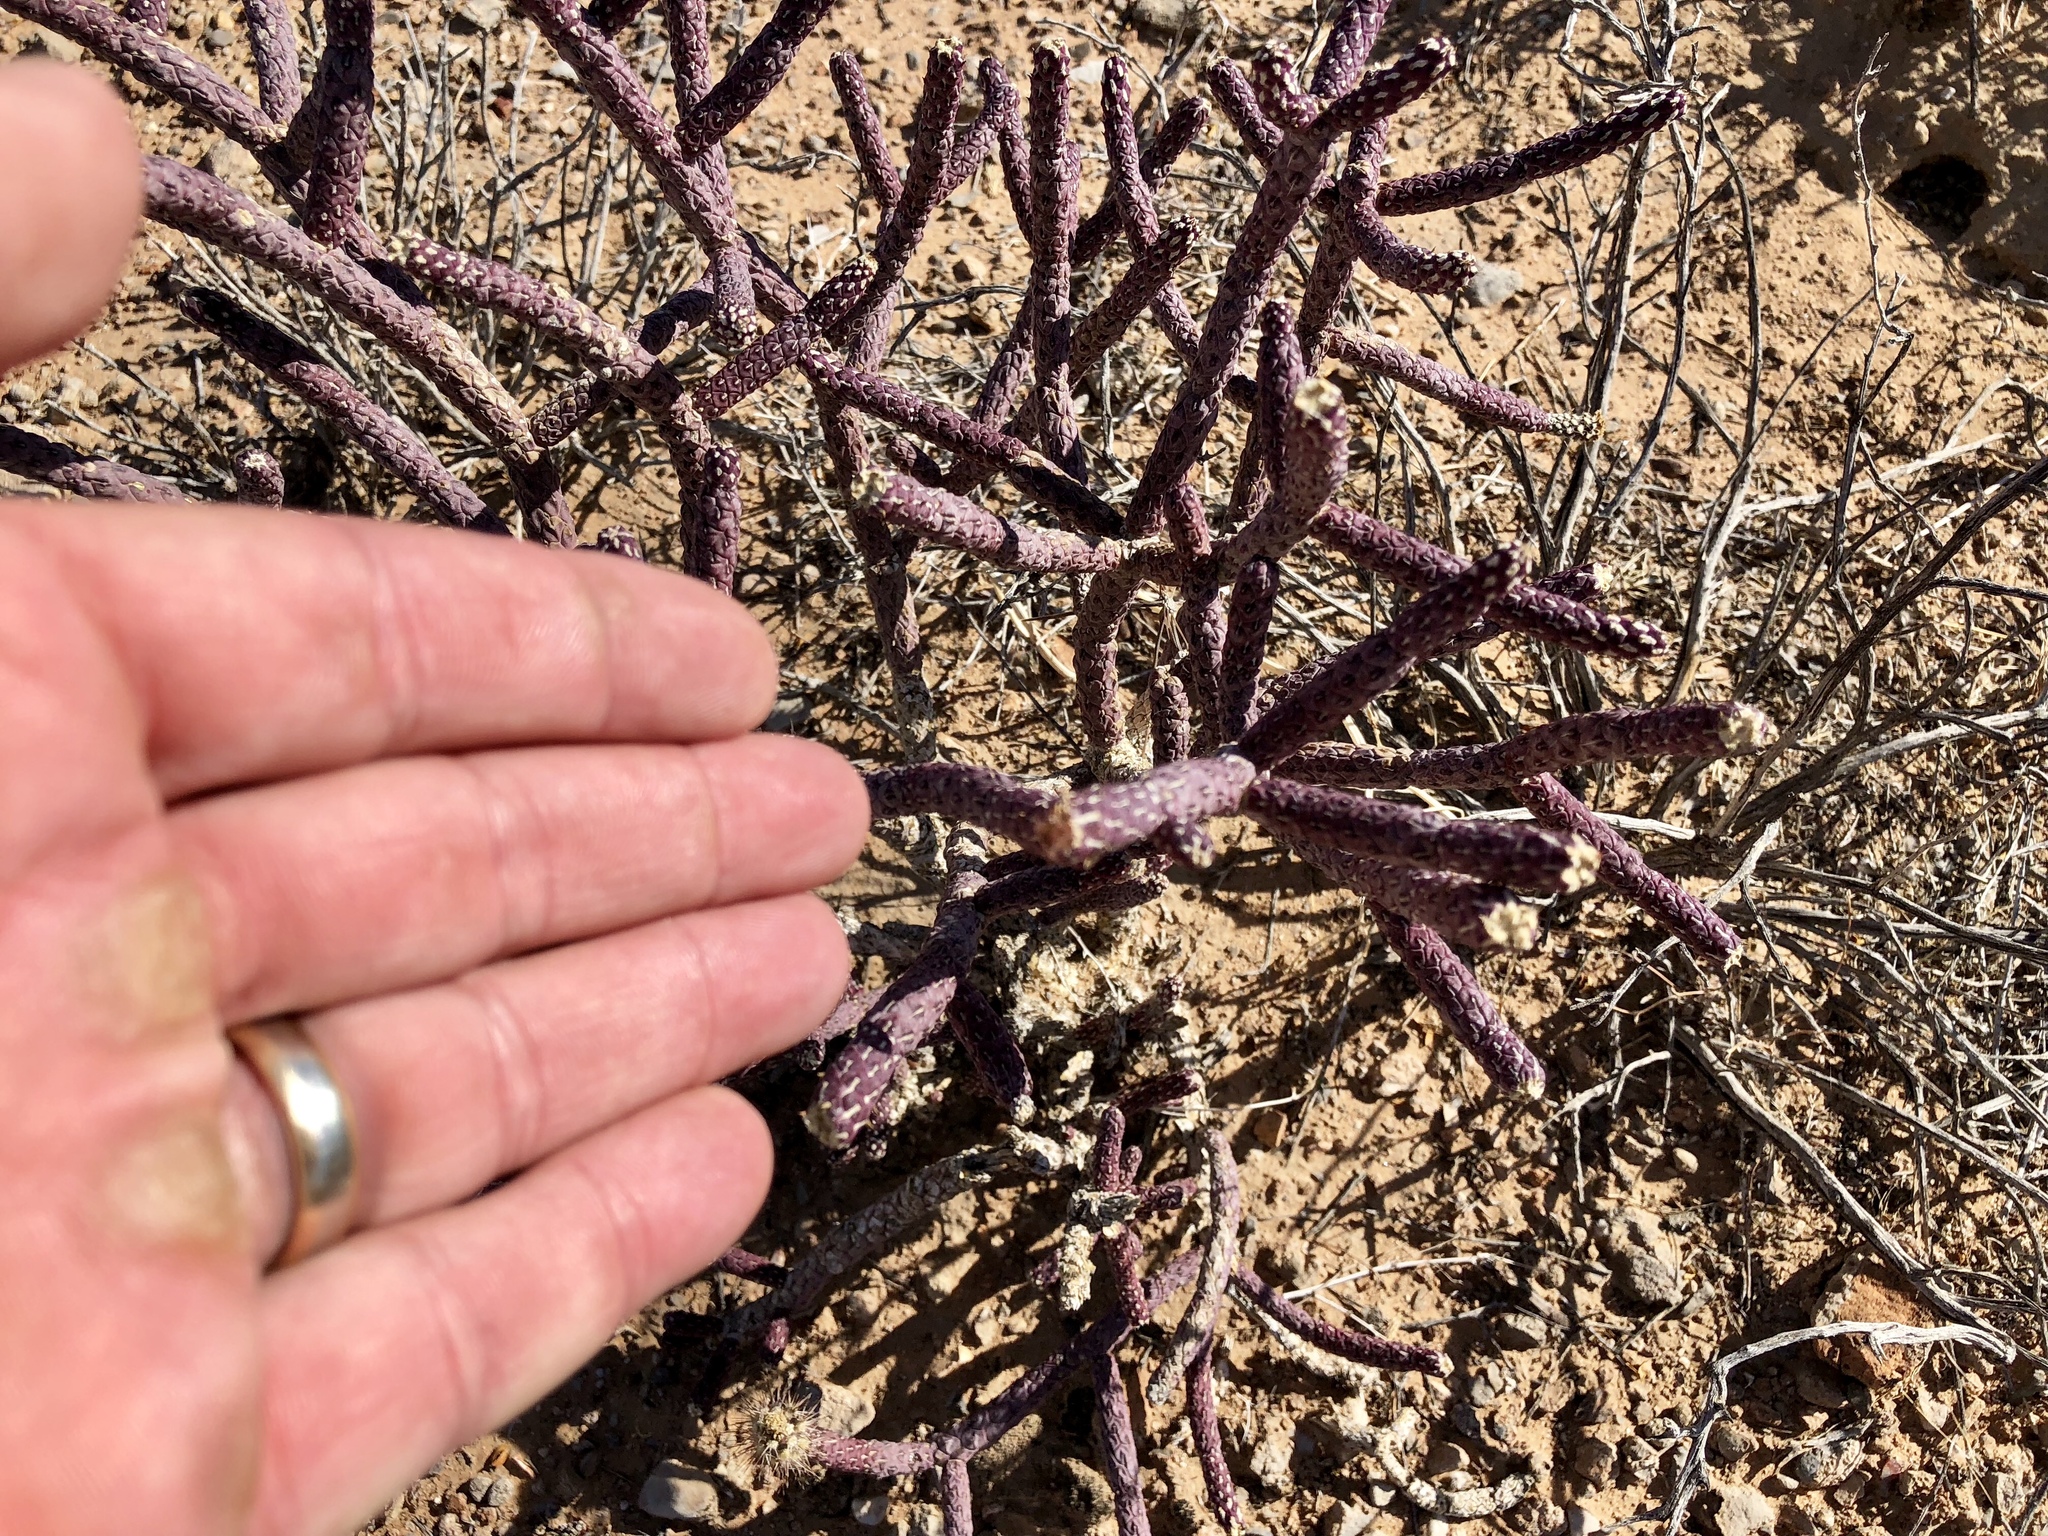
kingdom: Plantae
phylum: Tracheophyta
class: Magnoliopsida
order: Caryophyllales
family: Cactaceae
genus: Cylindropuntia
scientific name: Cylindropuntia ramosissima
